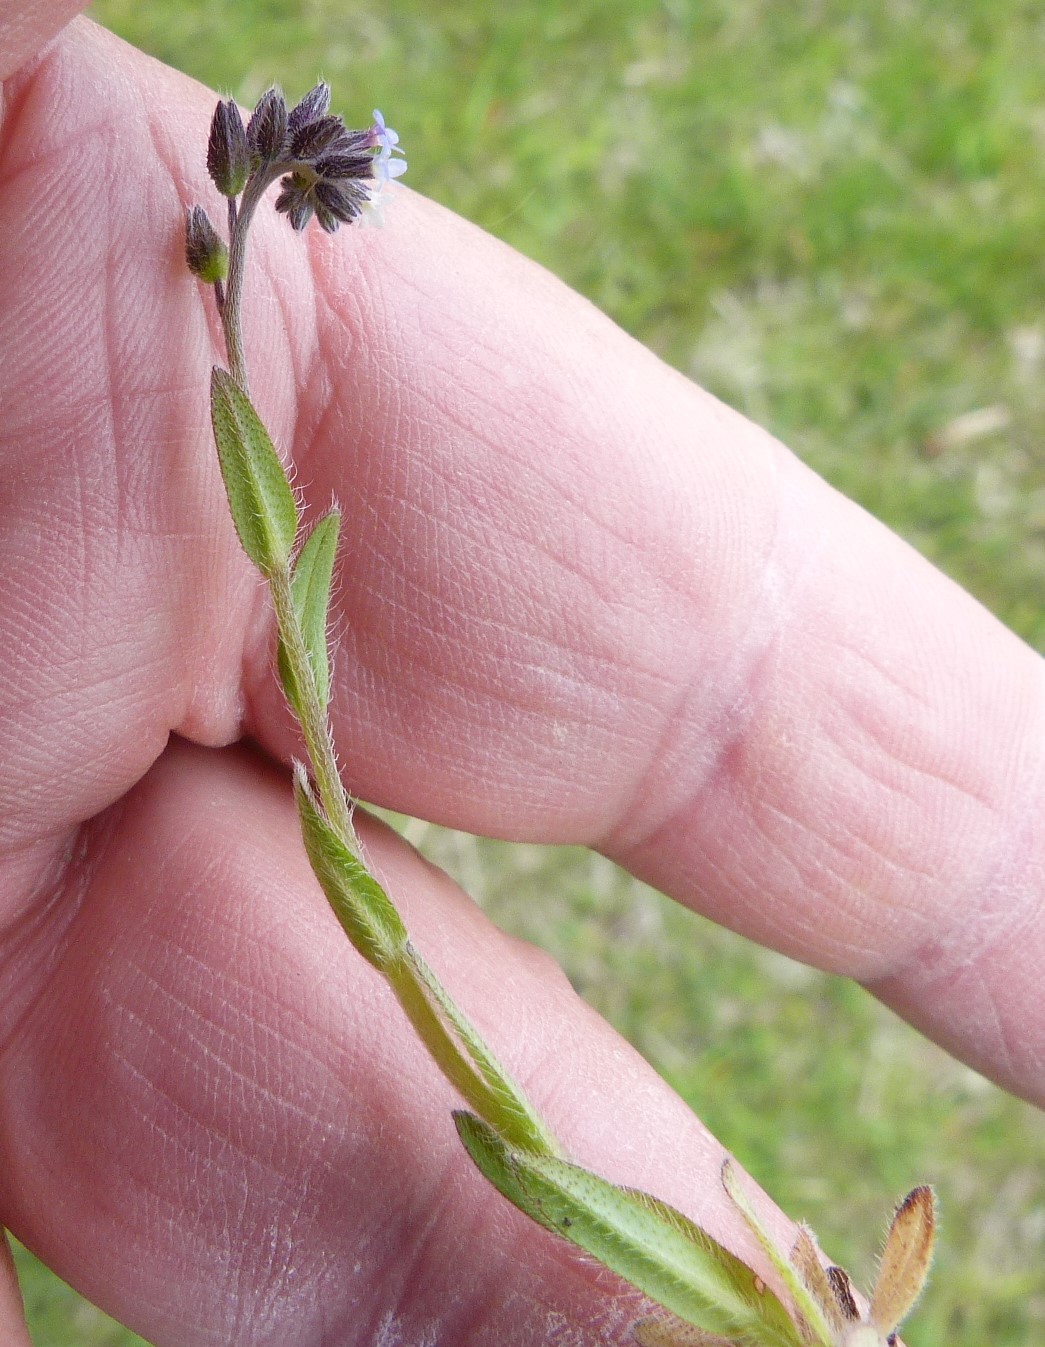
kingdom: Plantae
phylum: Tracheophyta
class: Magnoliopsida
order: Boraginales
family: Boraginaceae
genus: Myosotis
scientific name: Myosotis discolor
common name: Changing forget-me-not
